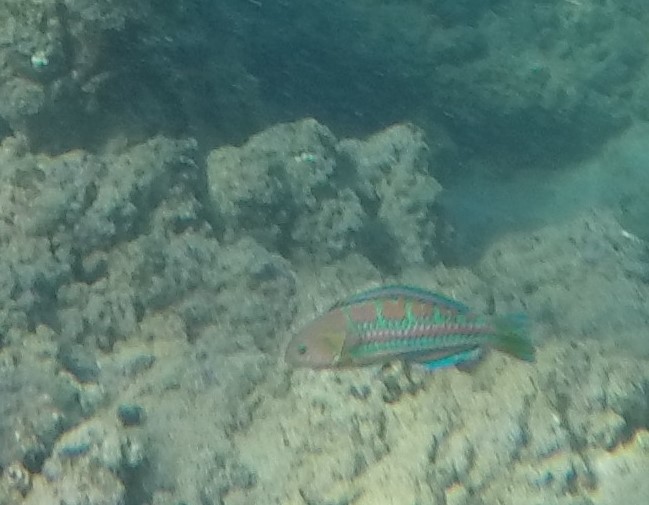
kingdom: Animalia
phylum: Chordata
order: Perciformes
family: Labridae
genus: Thalassoma
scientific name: Thalassoma trilobatum
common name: Christmas wrasse
